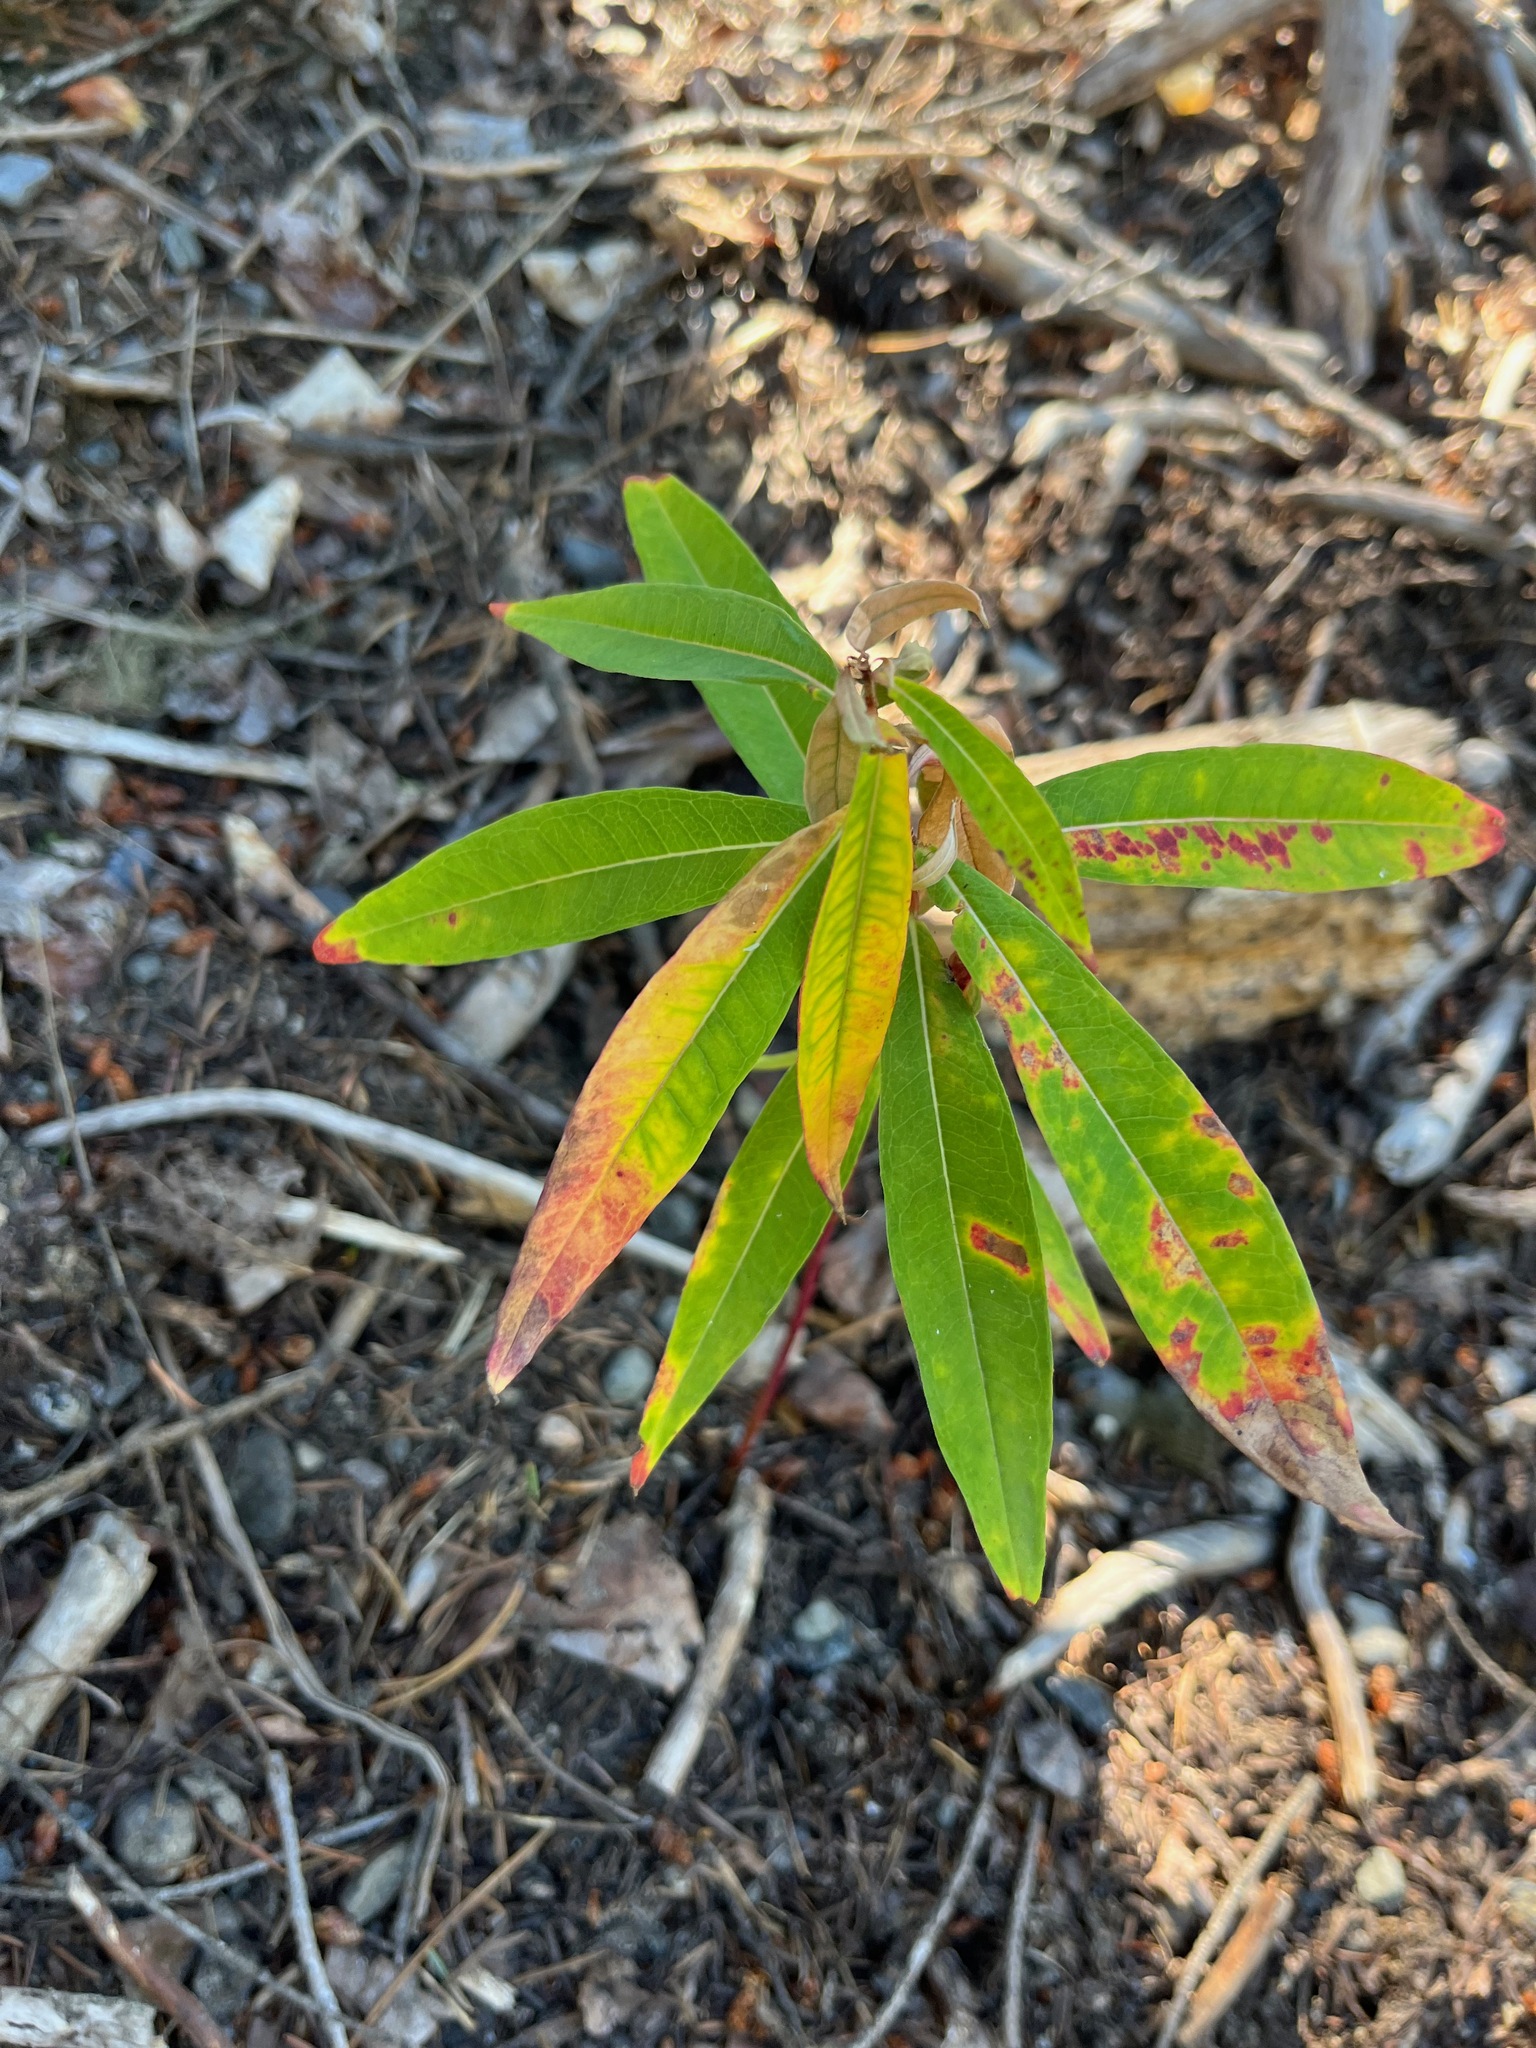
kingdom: Plantae
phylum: Tracheophyta
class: Magnoliopsida
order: Myrtales
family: Onagraceae
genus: Chamaenerion
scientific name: Chamaenerion angustifolium
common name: Fireweed
